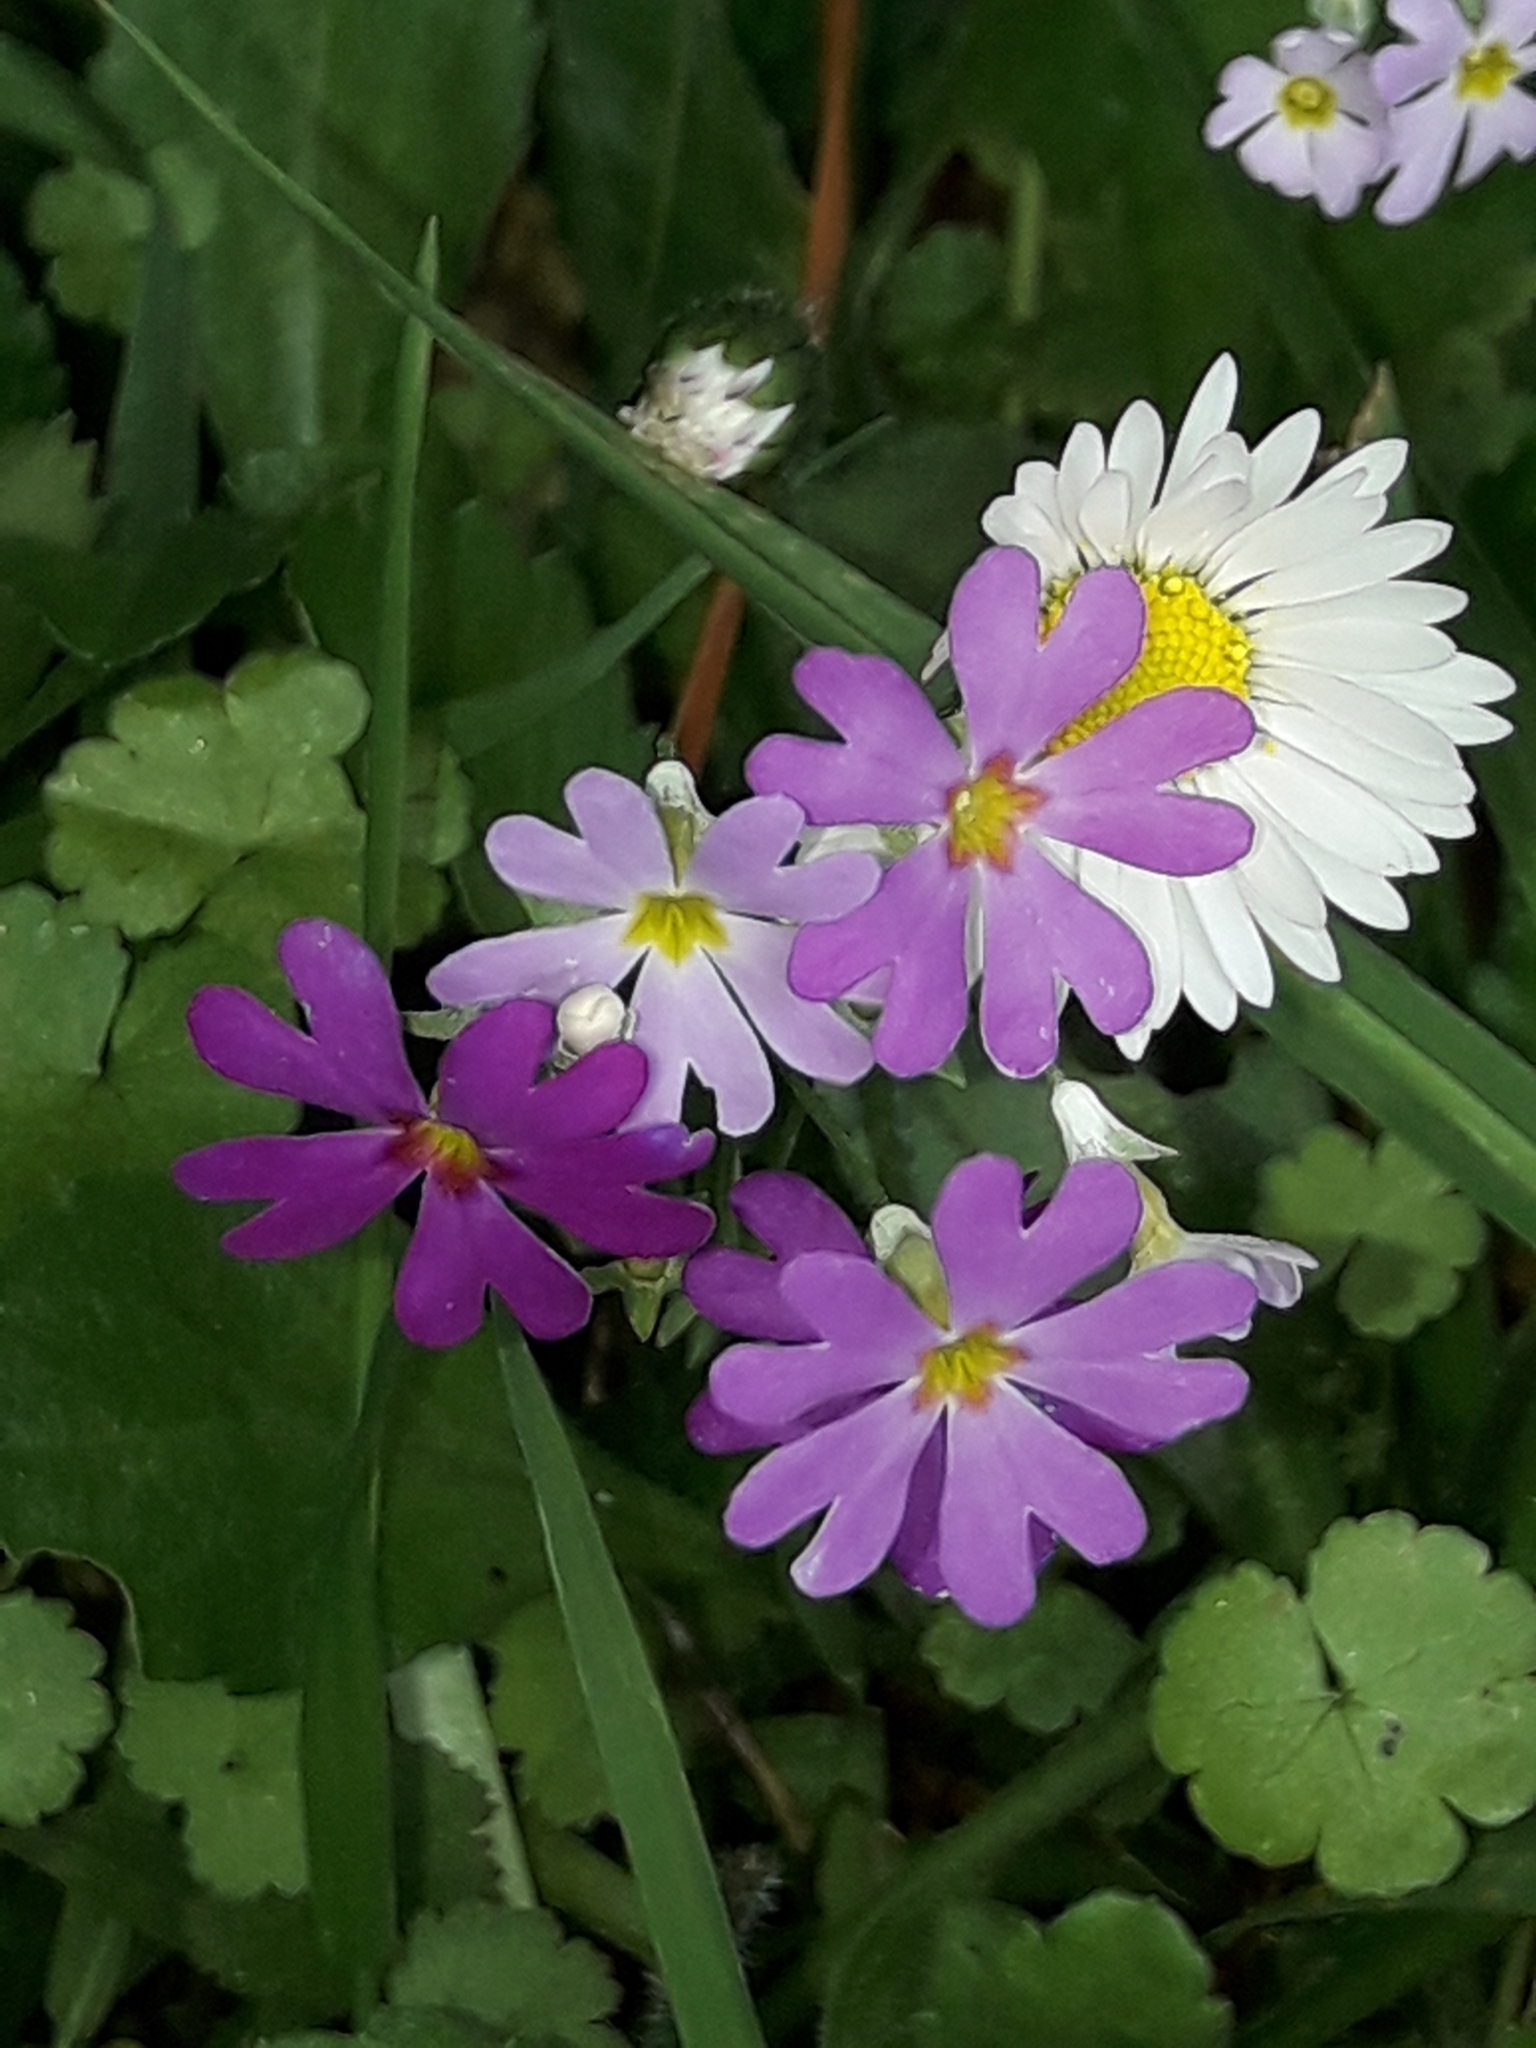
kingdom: Plantae
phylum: Tracheophyta
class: Magnoliopsida
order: Ericales
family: Primulaceae
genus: Primula
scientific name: Primula malacoides
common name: Baby primrose
